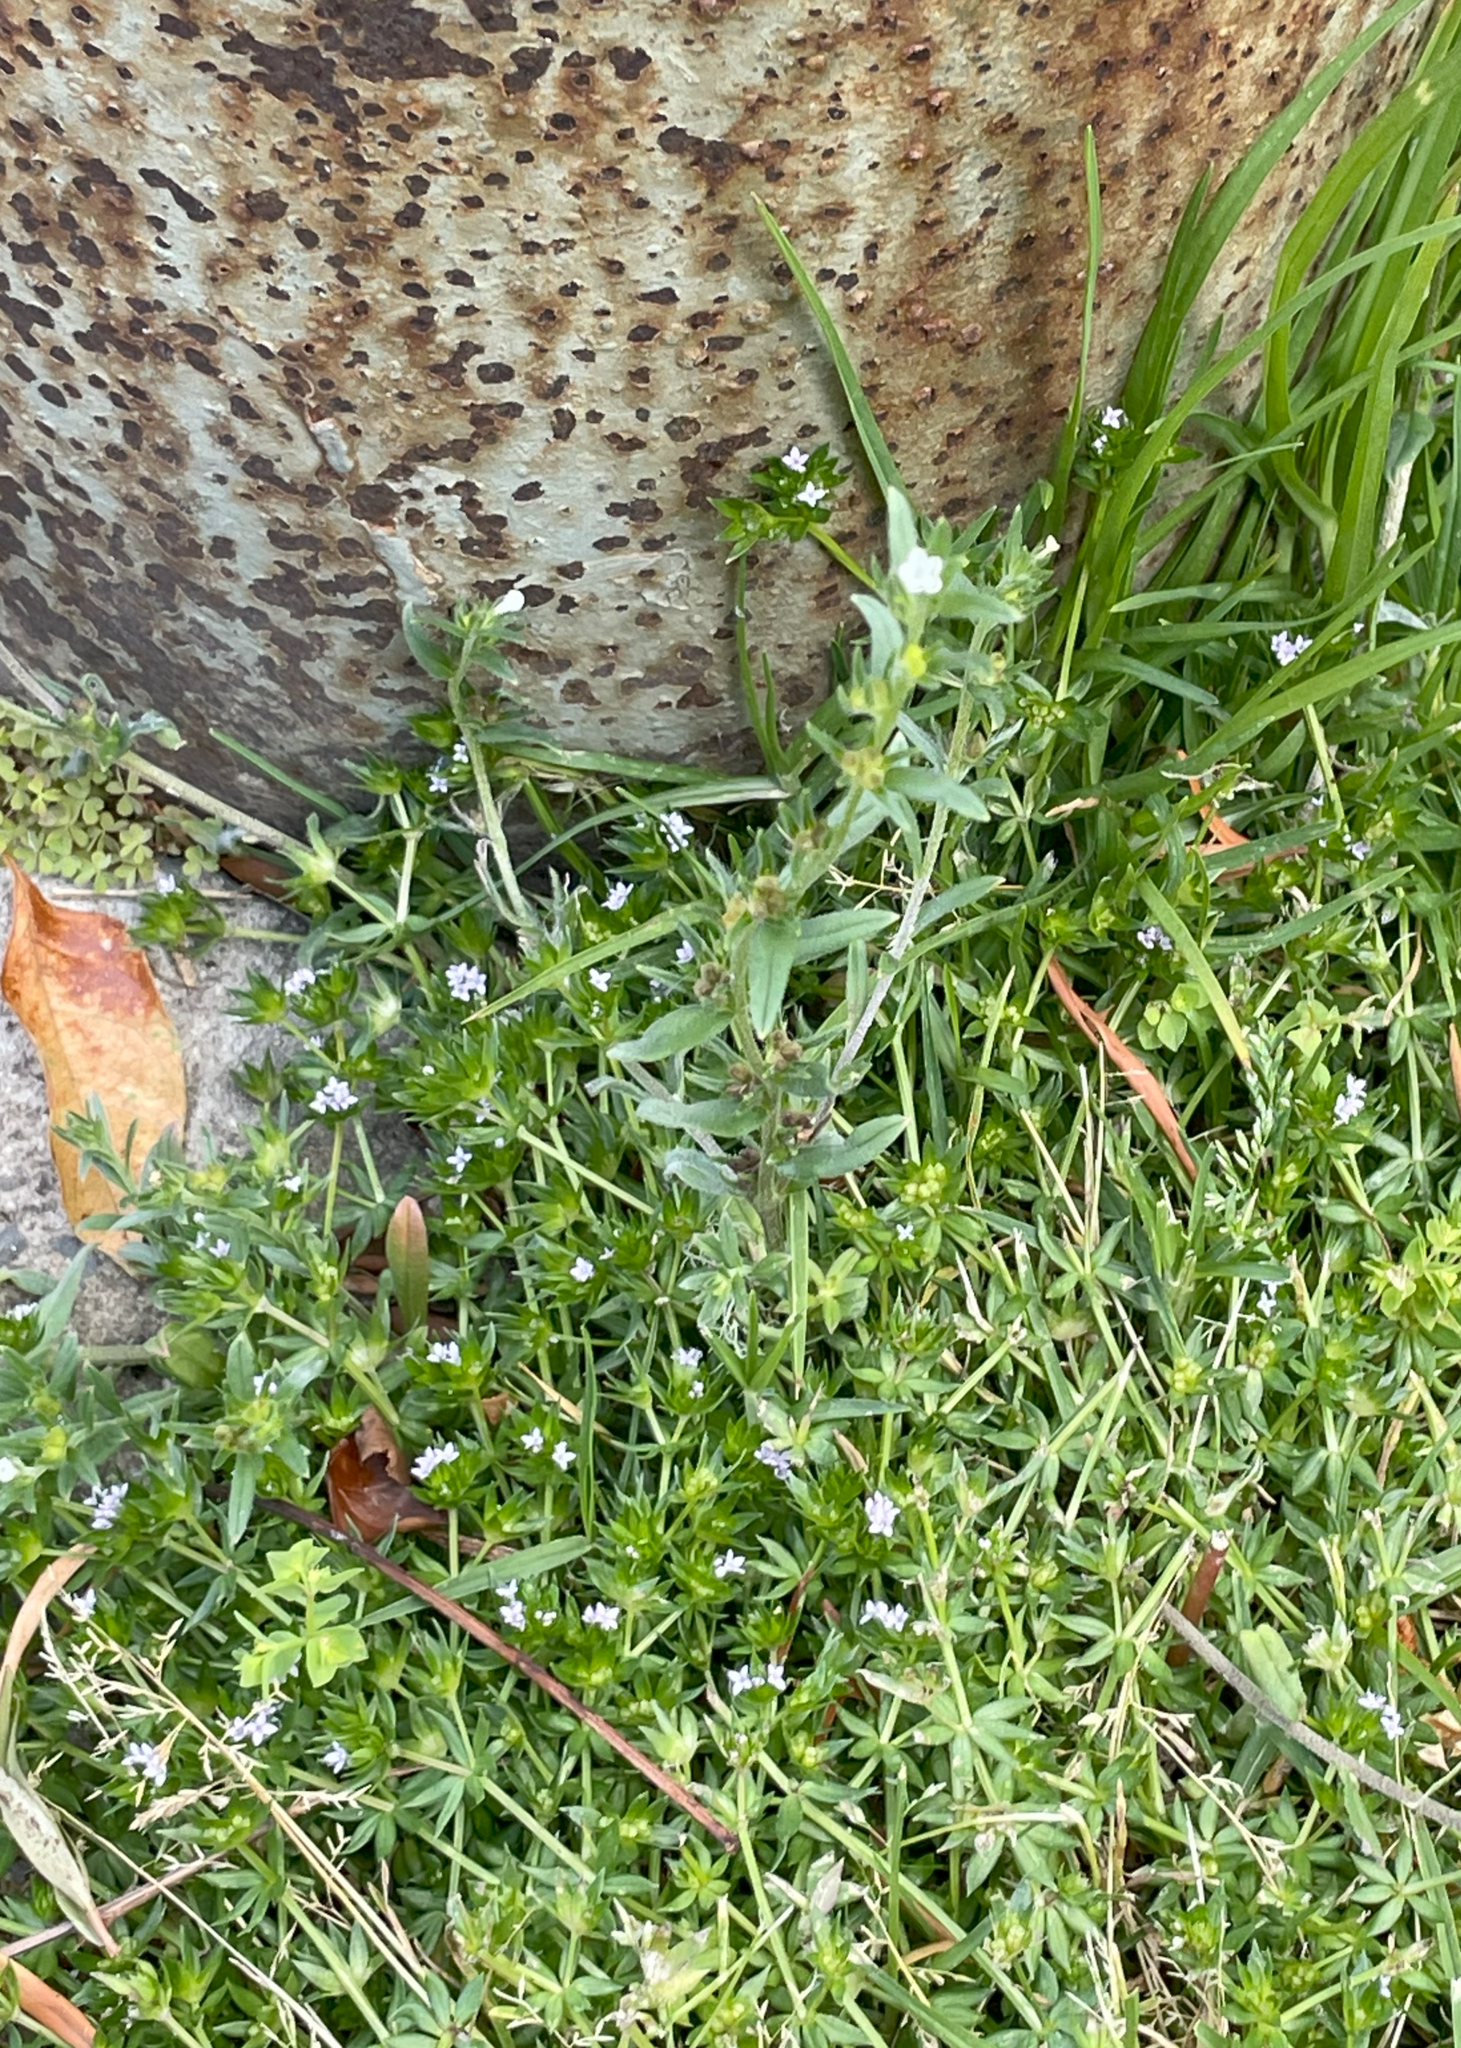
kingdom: Plantae
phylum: Tracheophyta
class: Magnoliopsida
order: Boraginales
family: Boraginaceae
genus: Buglossoides
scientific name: Buglossoides arvensis
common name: Corn gromwell
